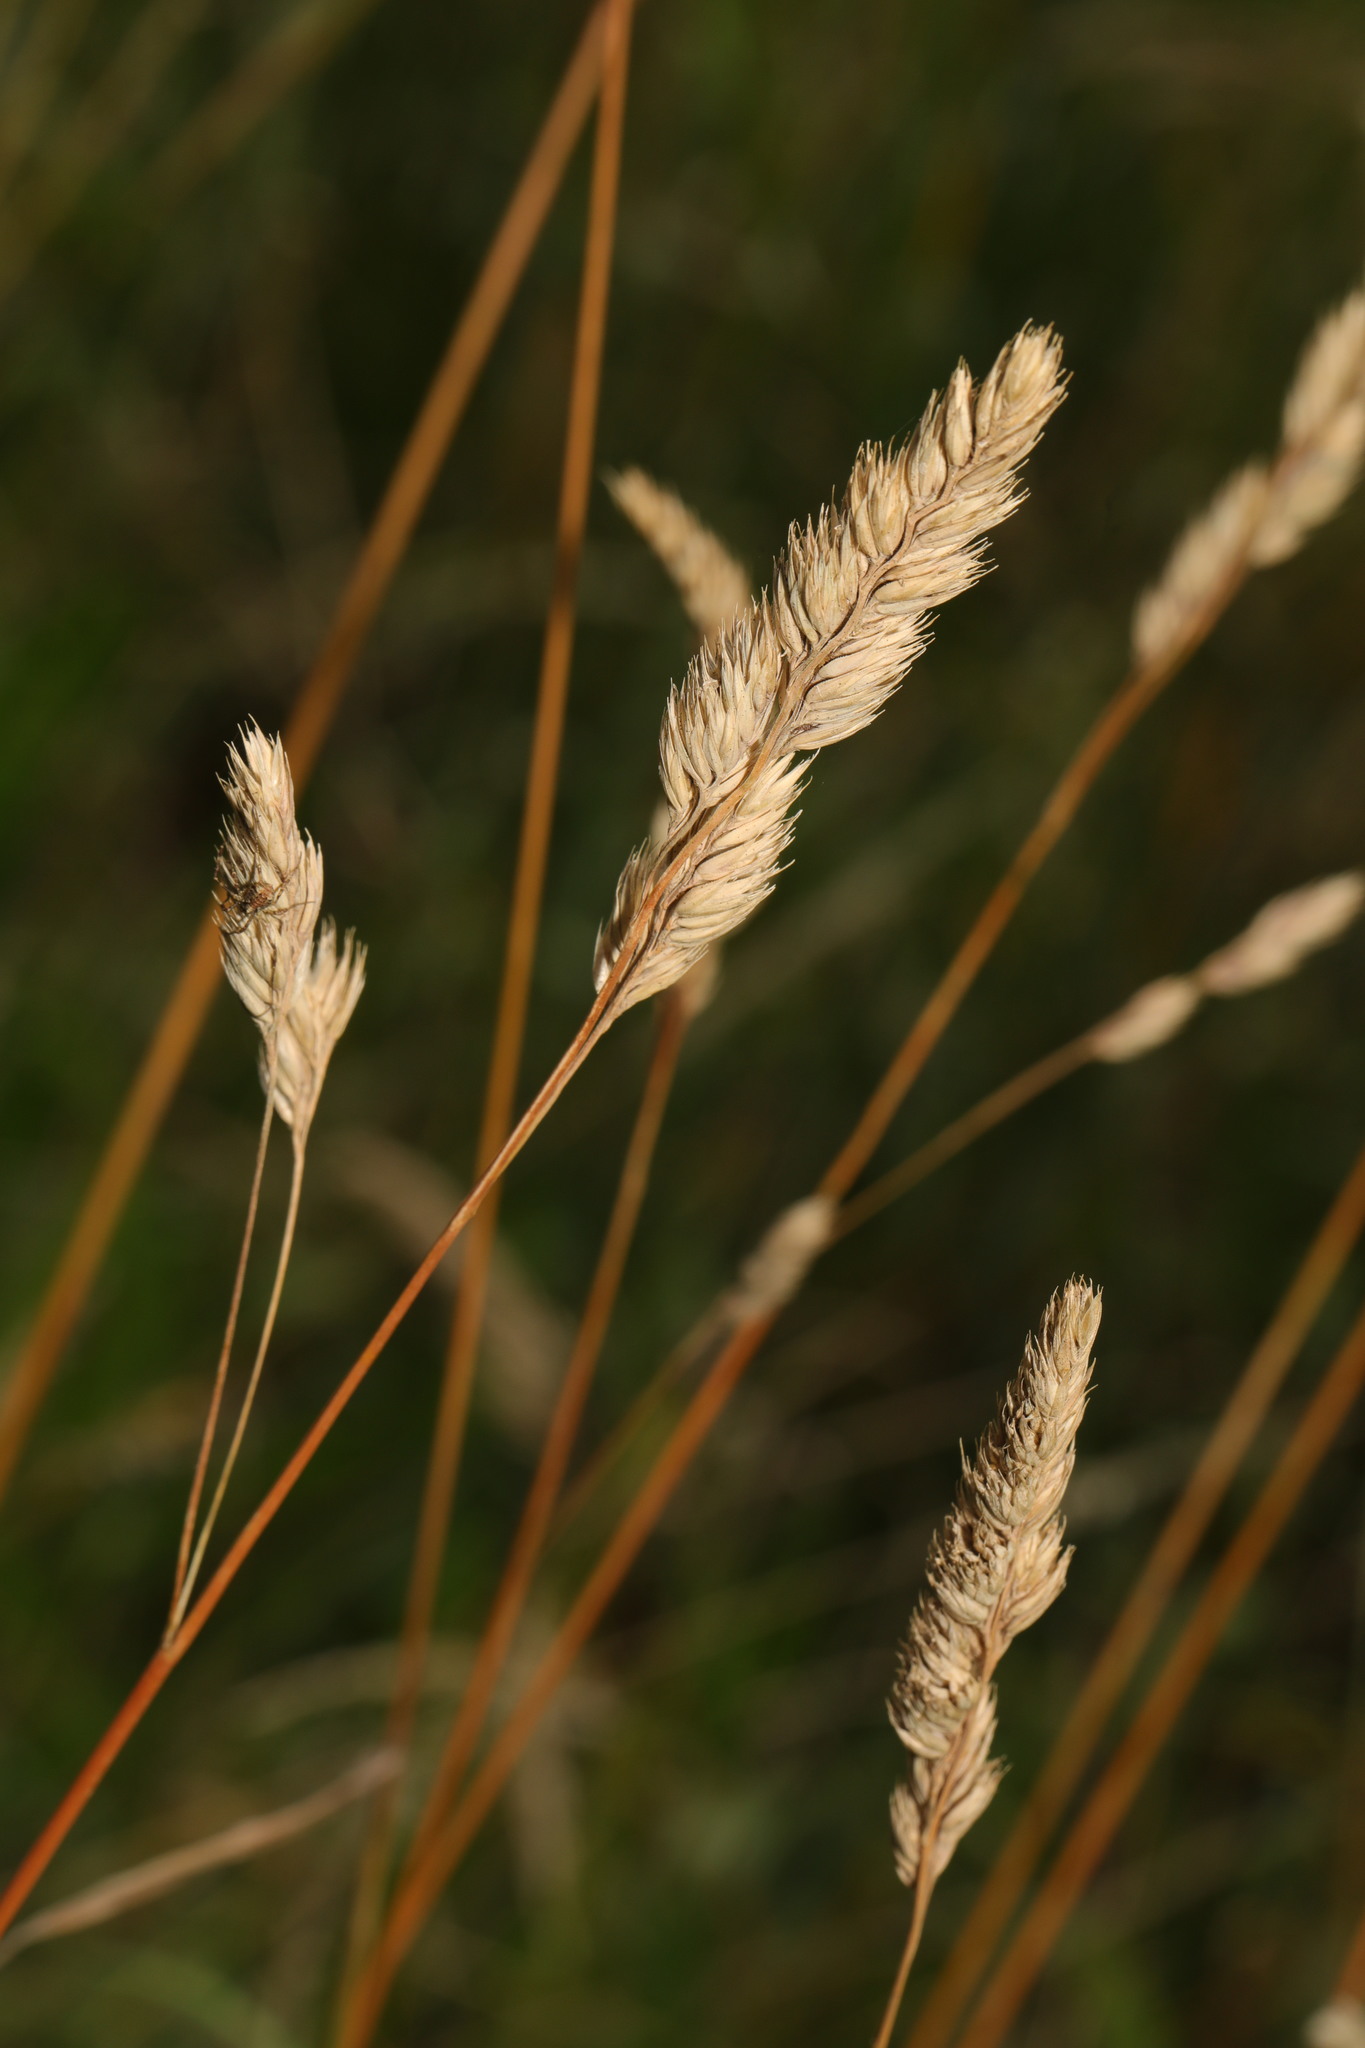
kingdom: Plantae
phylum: Tracheophyta
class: Liliopsida
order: Poales
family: Poaceae
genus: Dactylis
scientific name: Dactylis glomerata
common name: Orchardgrass
